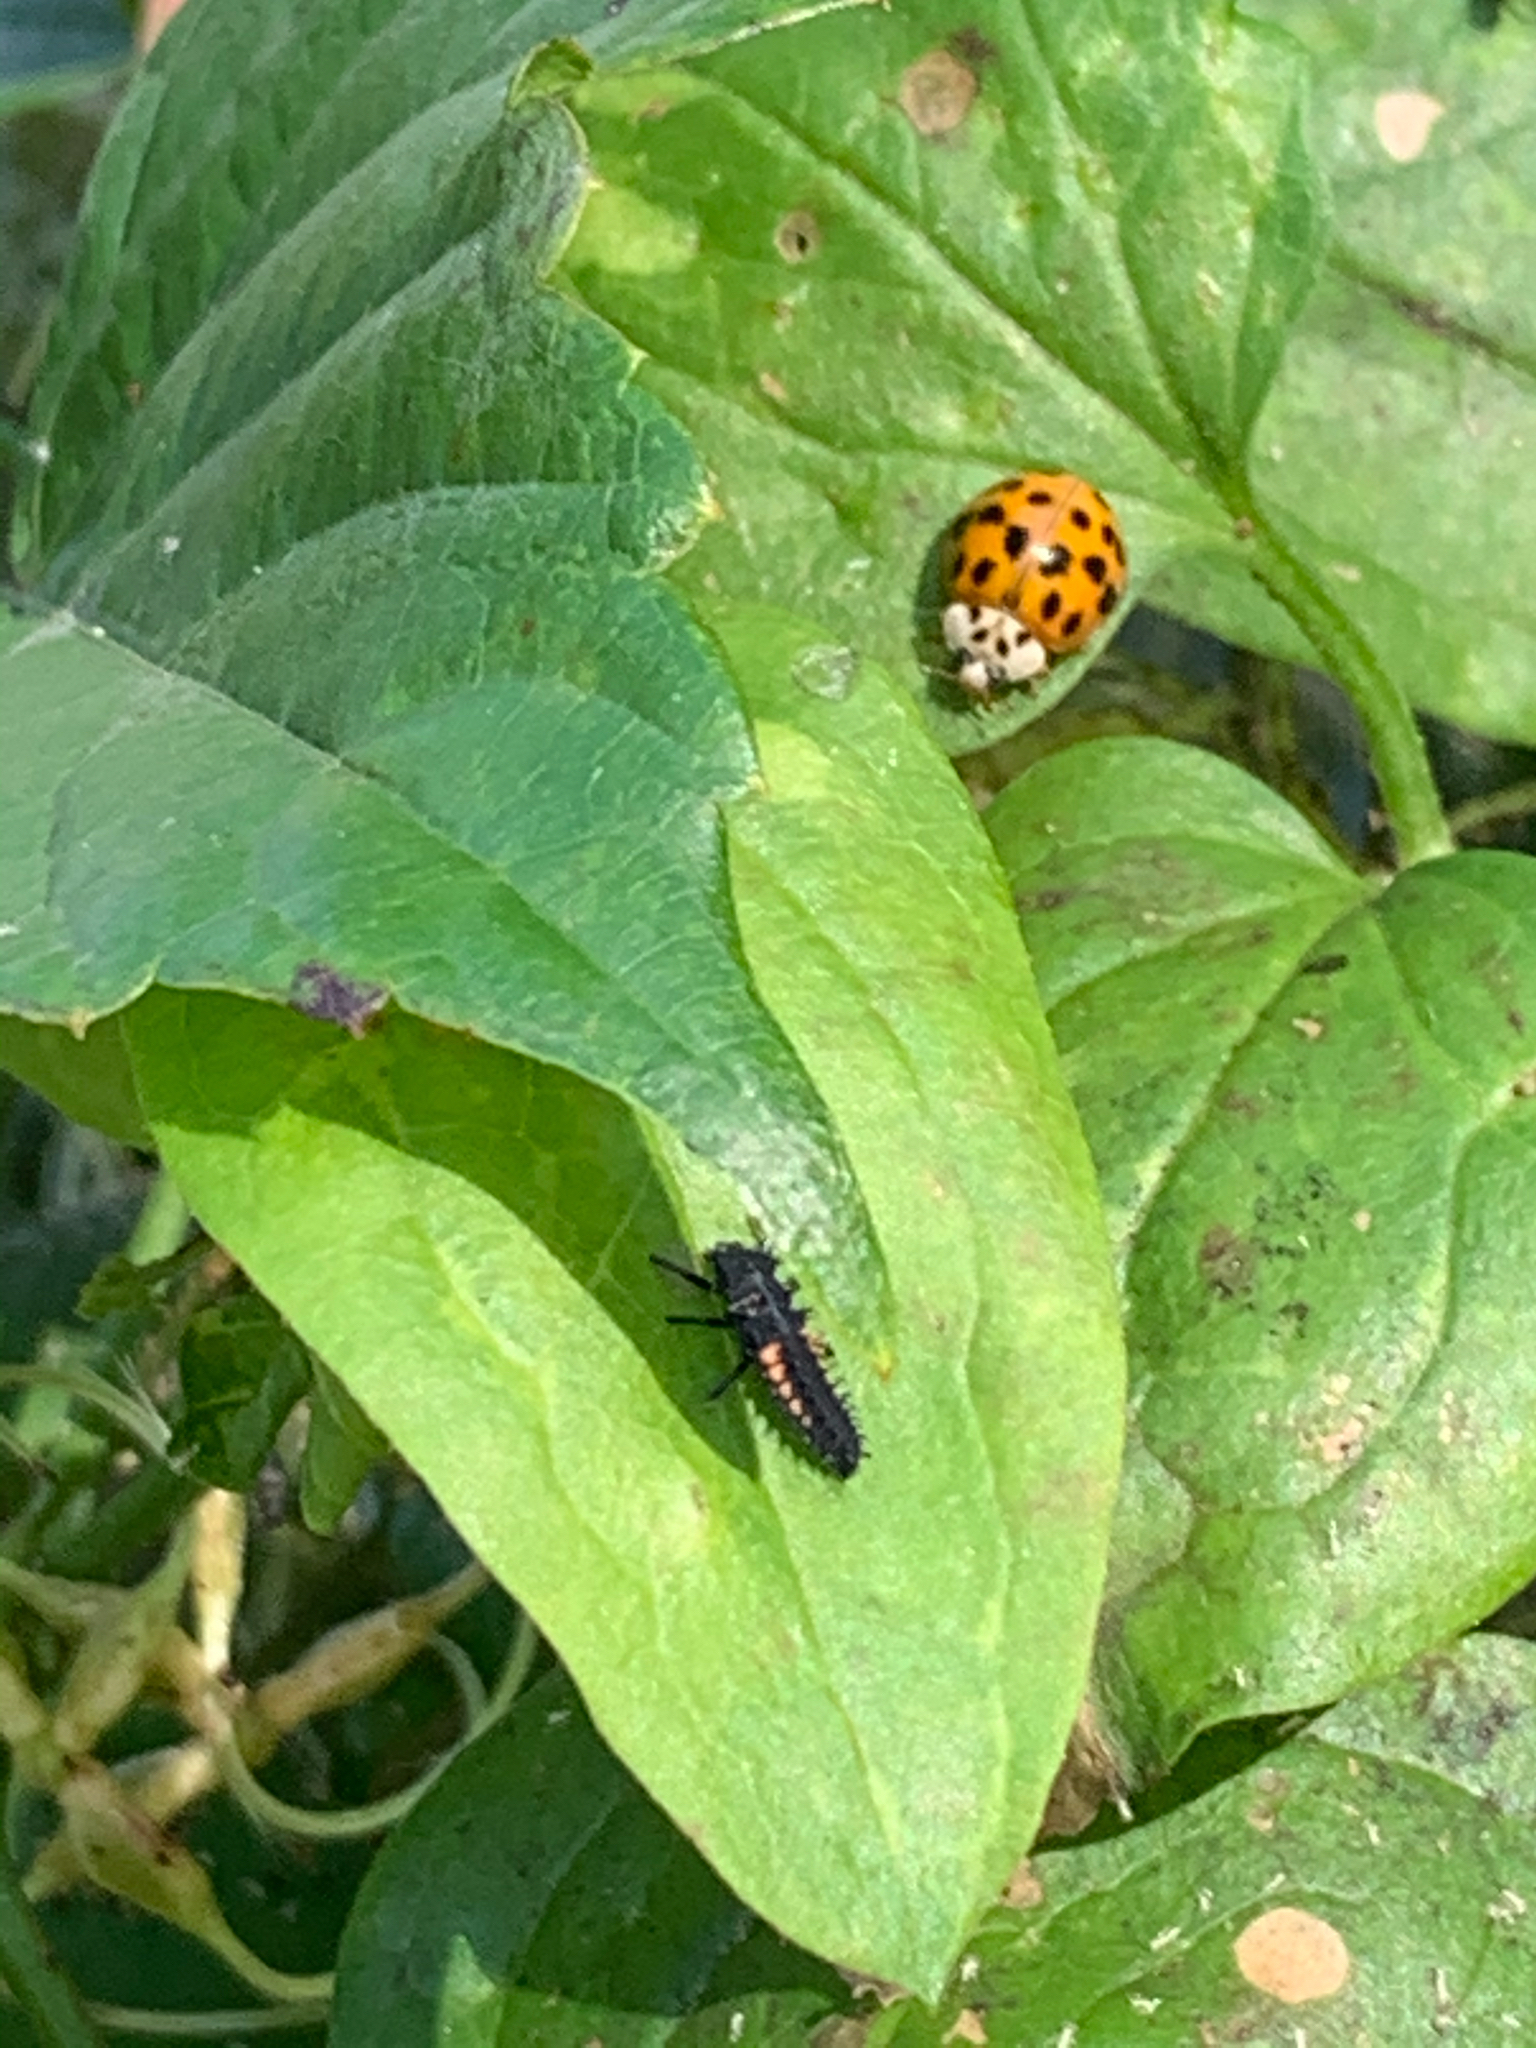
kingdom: Animalia
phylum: Arthropoda
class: Insecta
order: Coleoptera
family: Coccinellidae
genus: Harmonia
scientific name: Harmonia axyridis
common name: Harlequin ladybird
